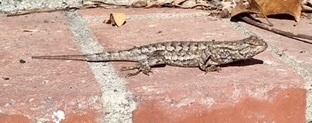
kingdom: Animalia
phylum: Chordata
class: Squamata
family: Phrynosomatidae
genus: Sceloporus
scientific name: Sceloporus occidentalis
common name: Western fence lizard
